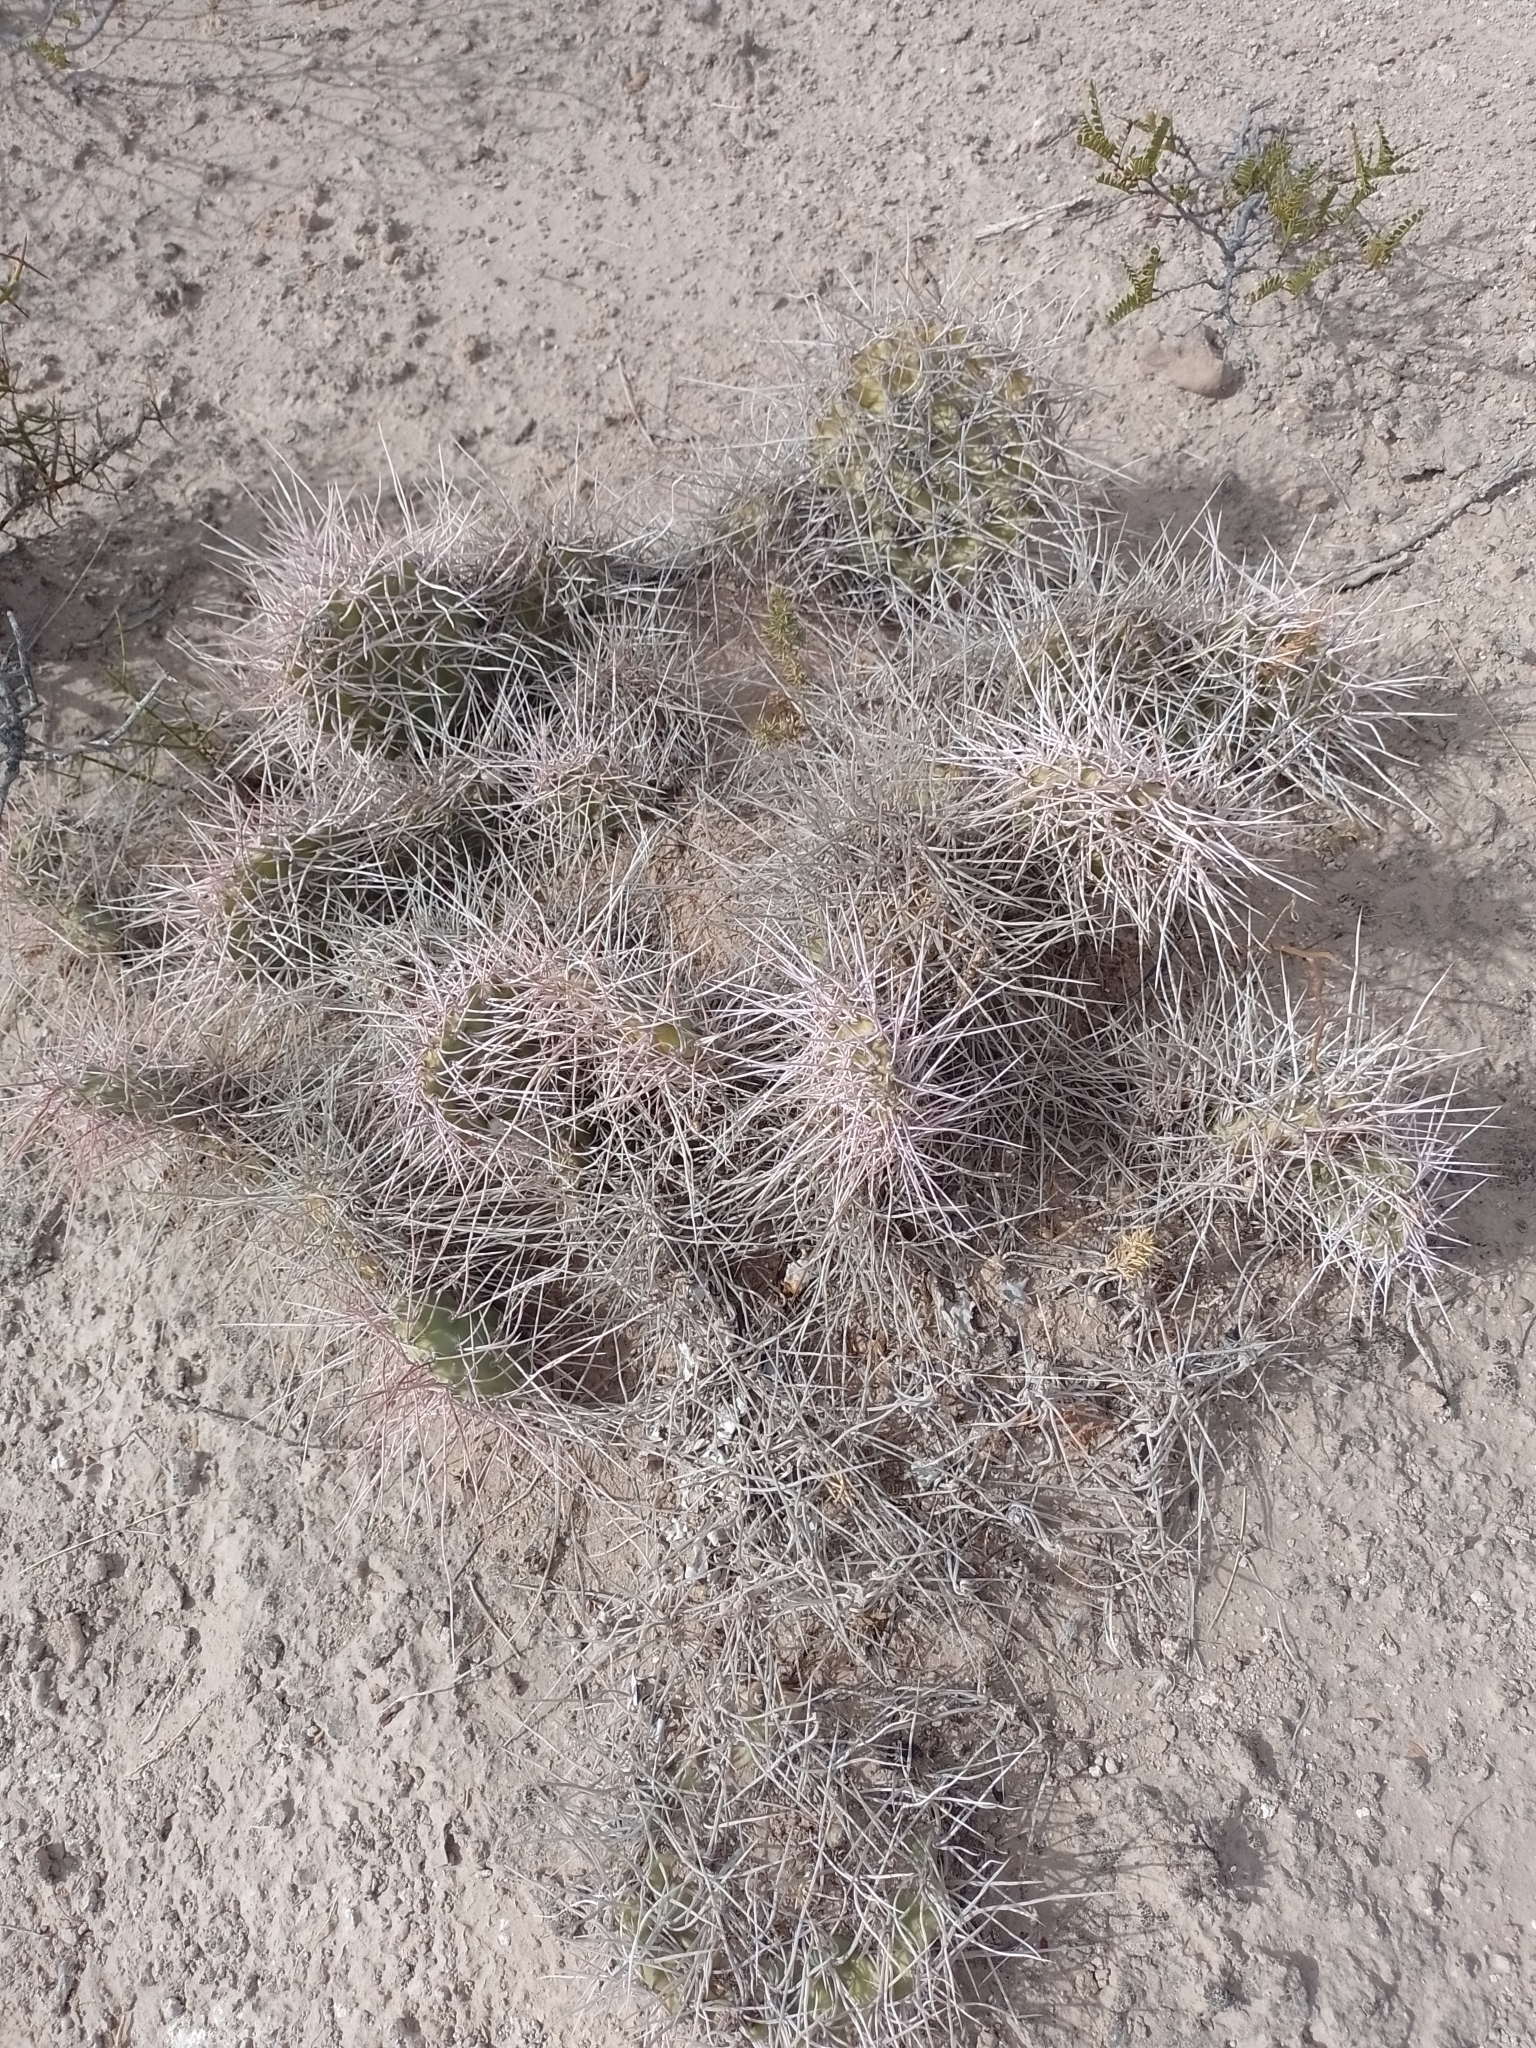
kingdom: Plantae
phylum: Tracheophyta
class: Magnoliopsida
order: Caryophyllales
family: Cactaceae
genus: Opuntia
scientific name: Opuntia sulphurea
